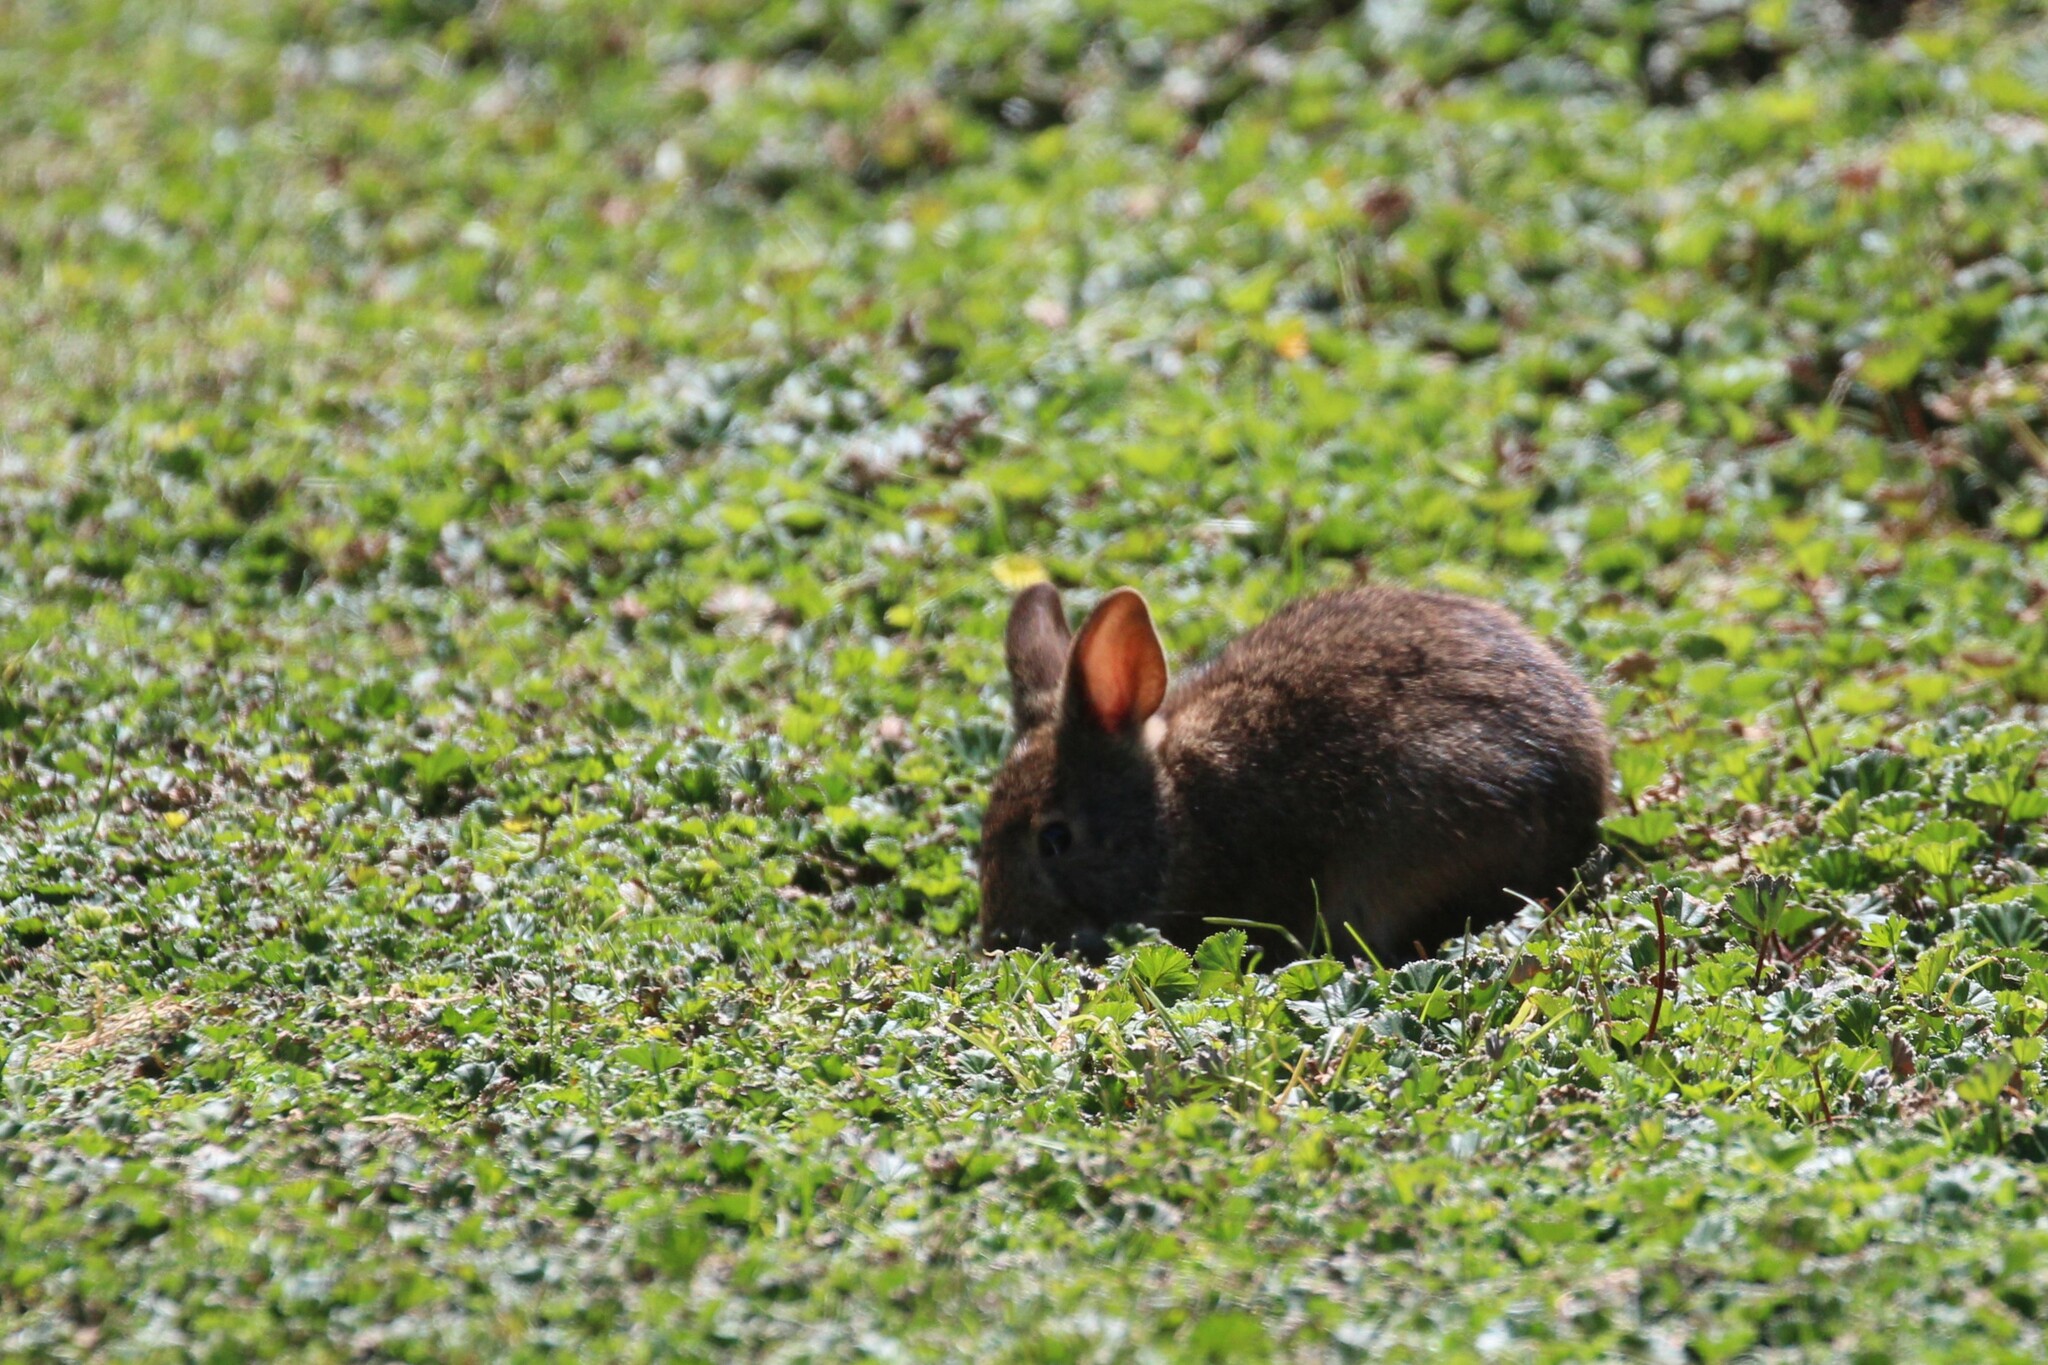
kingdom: Animalia
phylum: Chordata
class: Mammalia
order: Lagomorpha
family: Leporidae
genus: Sylvilagus
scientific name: Sylvilagus andinus
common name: Andean cottontail
